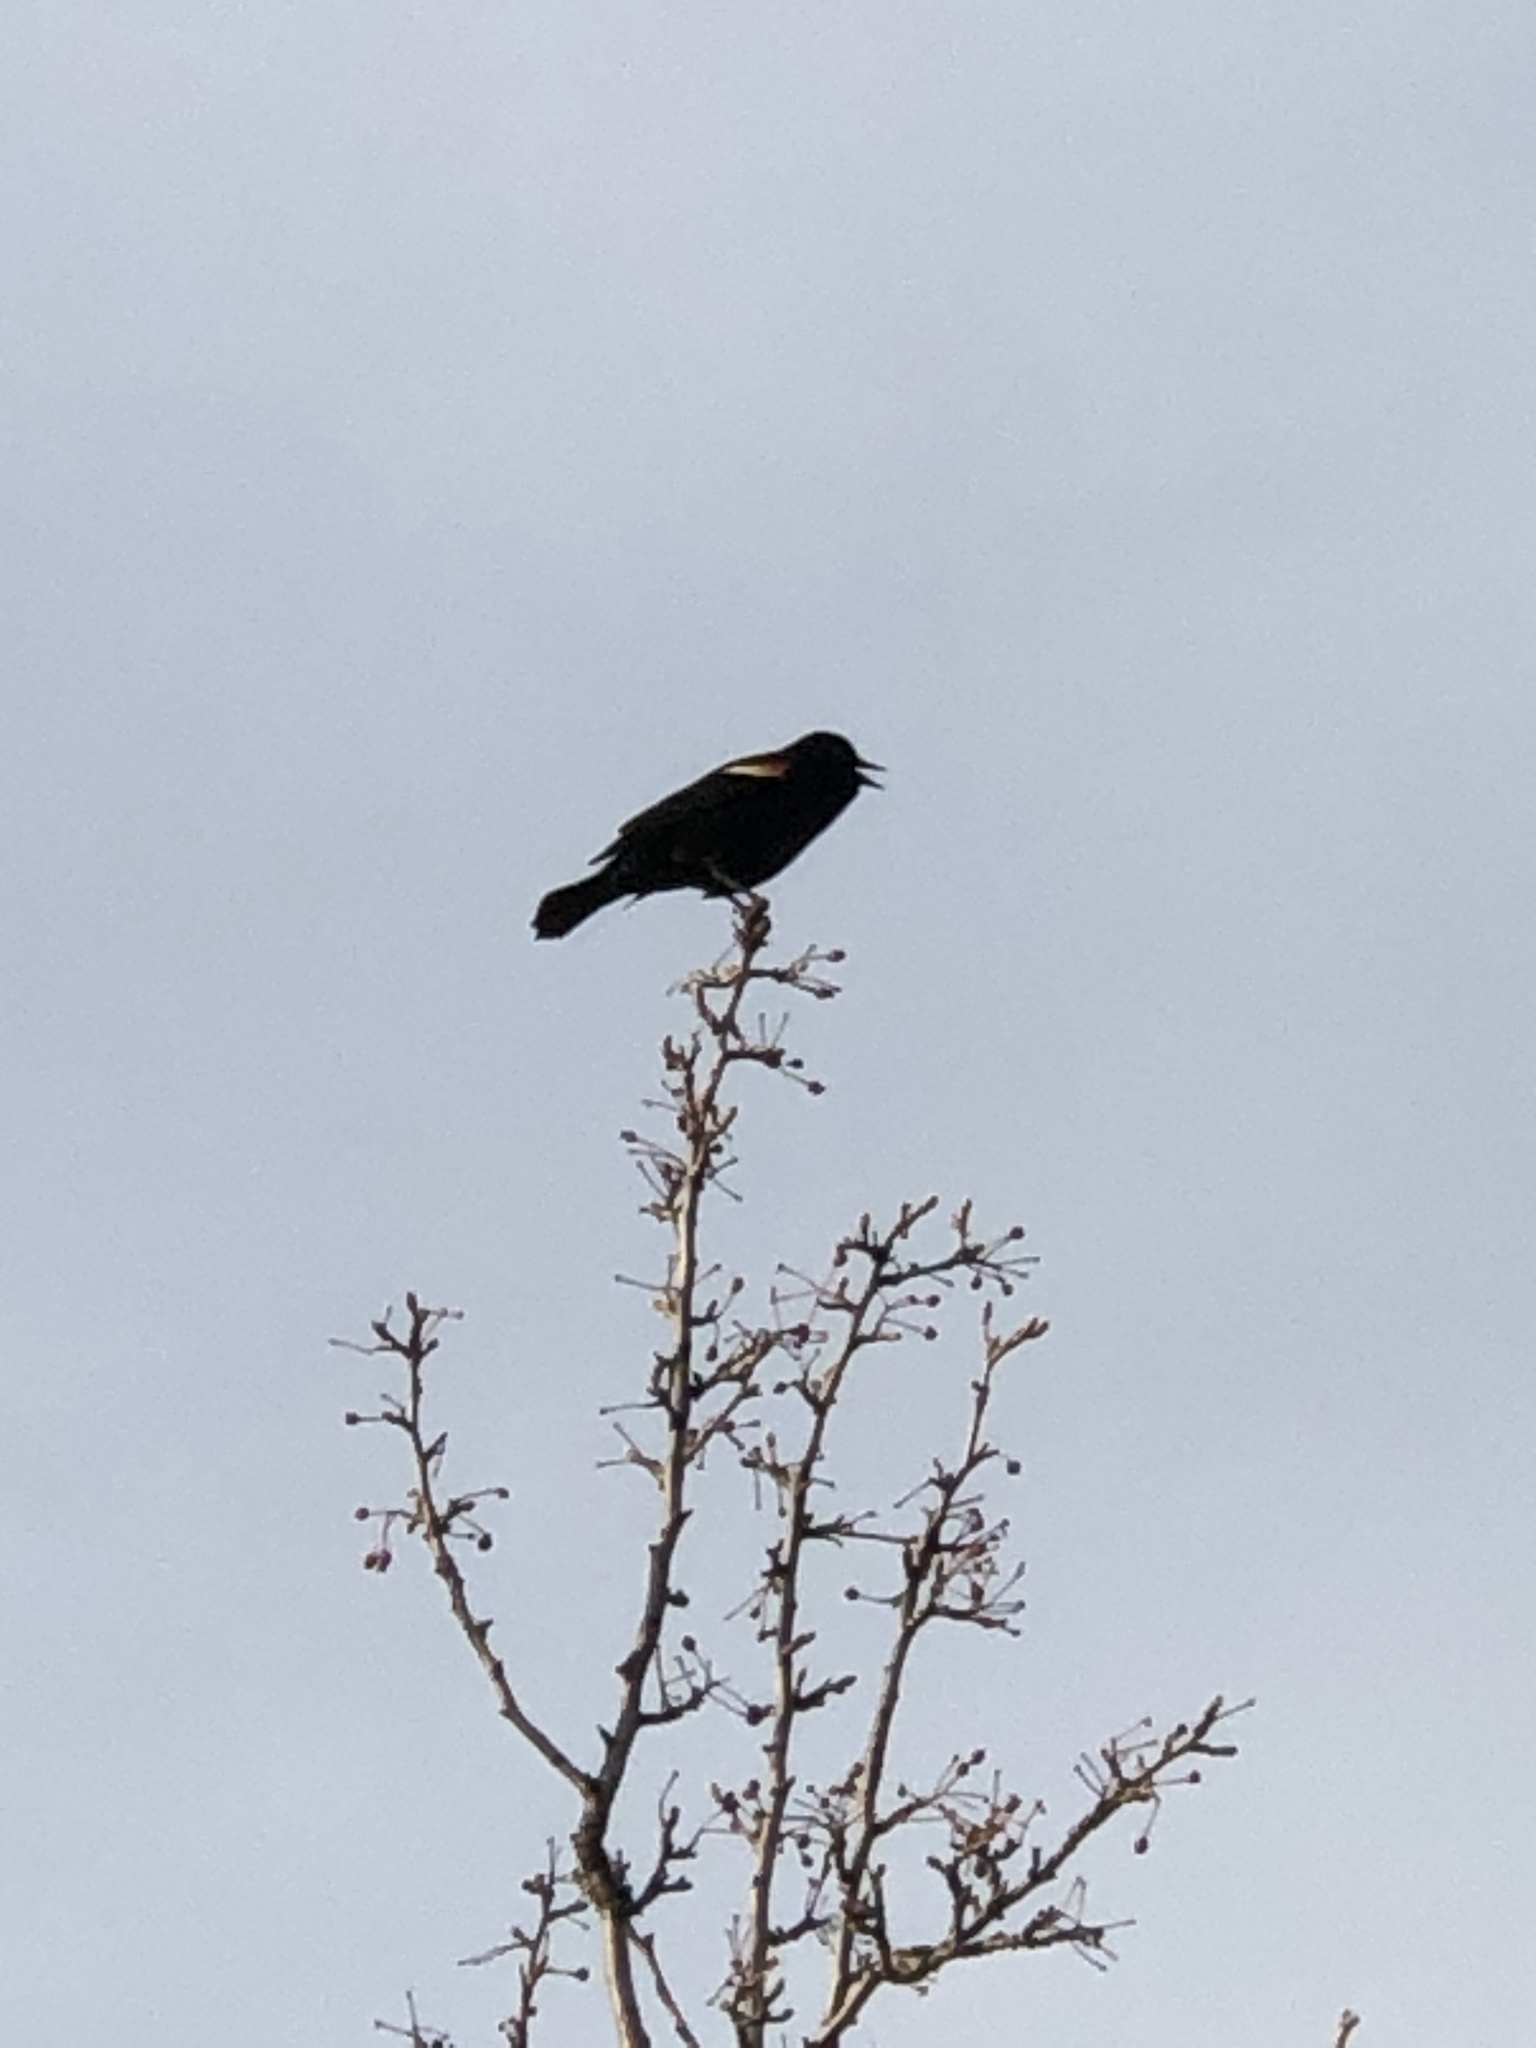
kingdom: Animalia
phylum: Chordata
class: Aves
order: Passeriformes
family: Icteridae
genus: Agelaius
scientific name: Agelaius phoeniceus
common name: Red-winged blackbird
